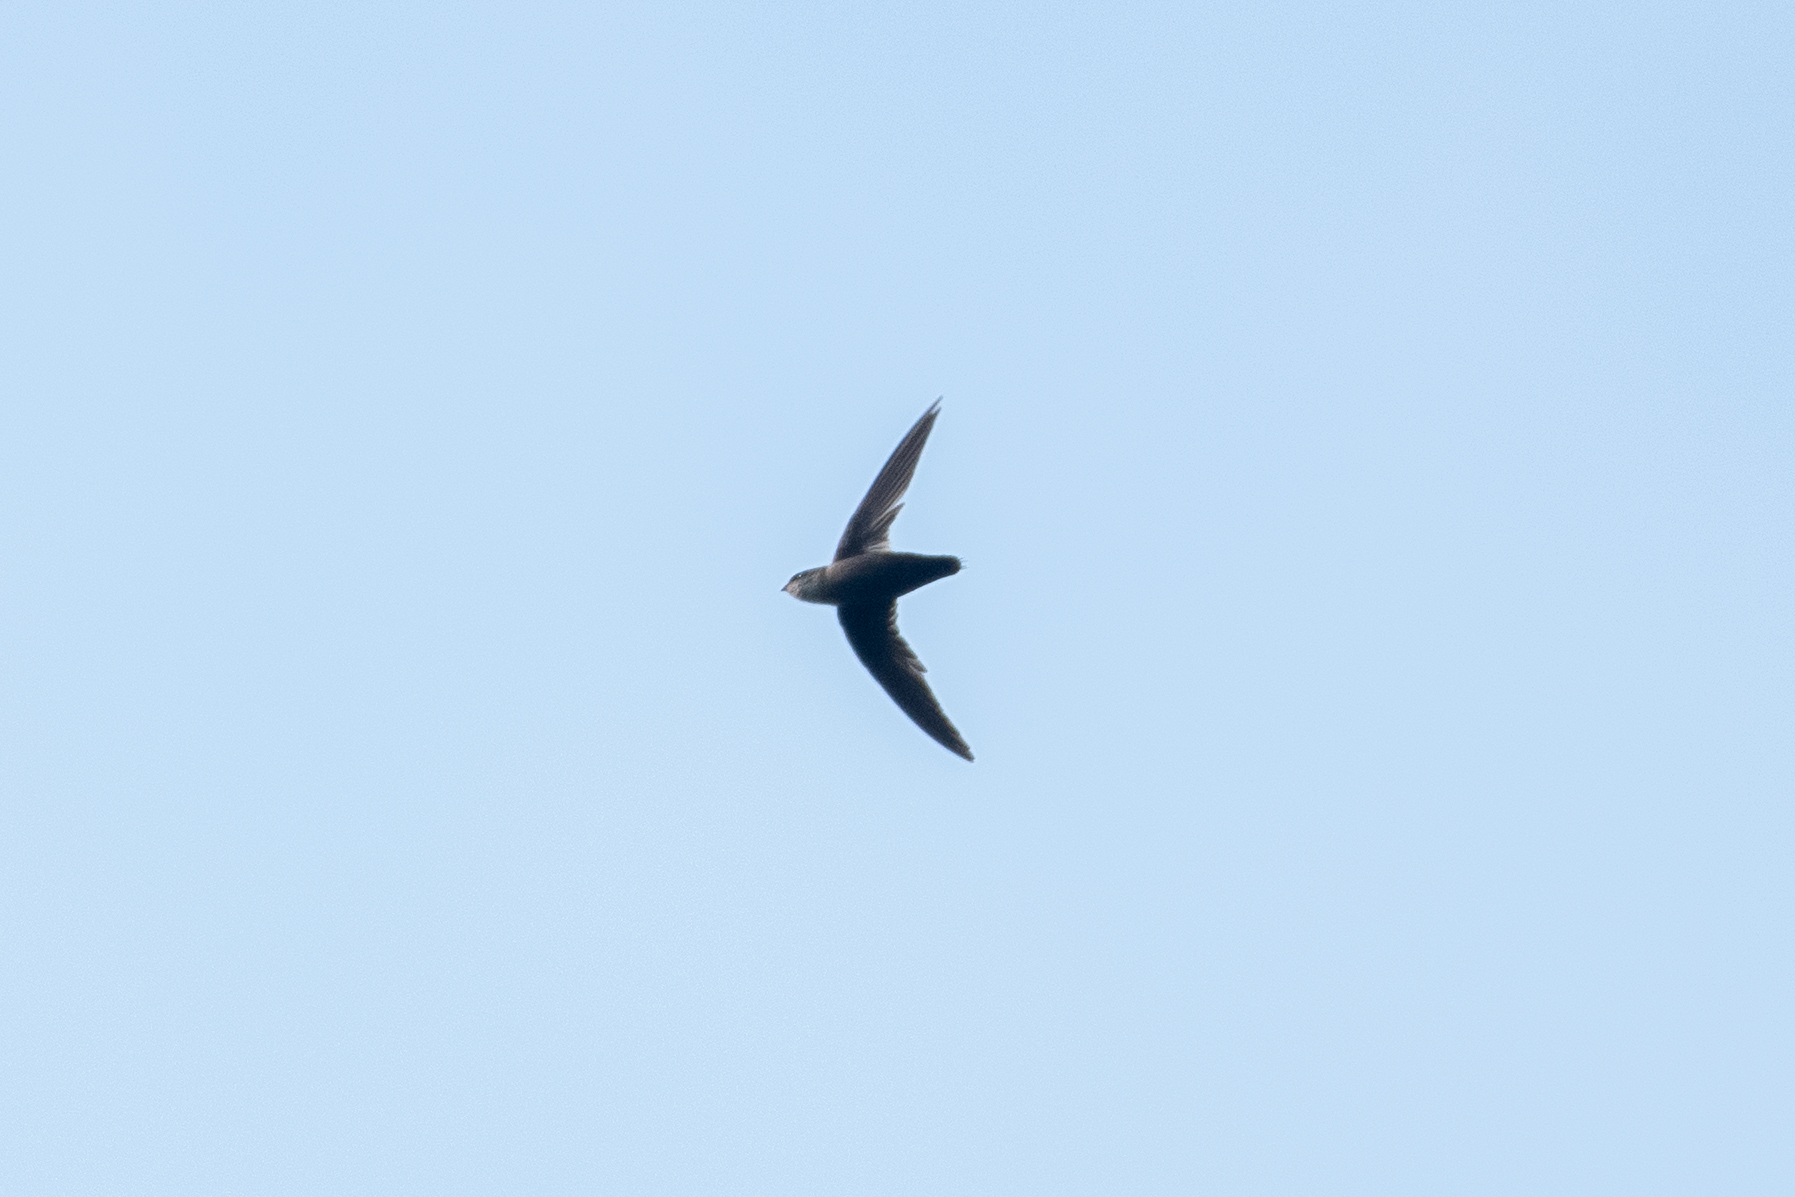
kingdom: Animalia
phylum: Chordata
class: Aves
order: Apodiformes
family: Apodidae
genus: Chaetura
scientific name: Chaetura vauxi
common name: Vaux's swift
